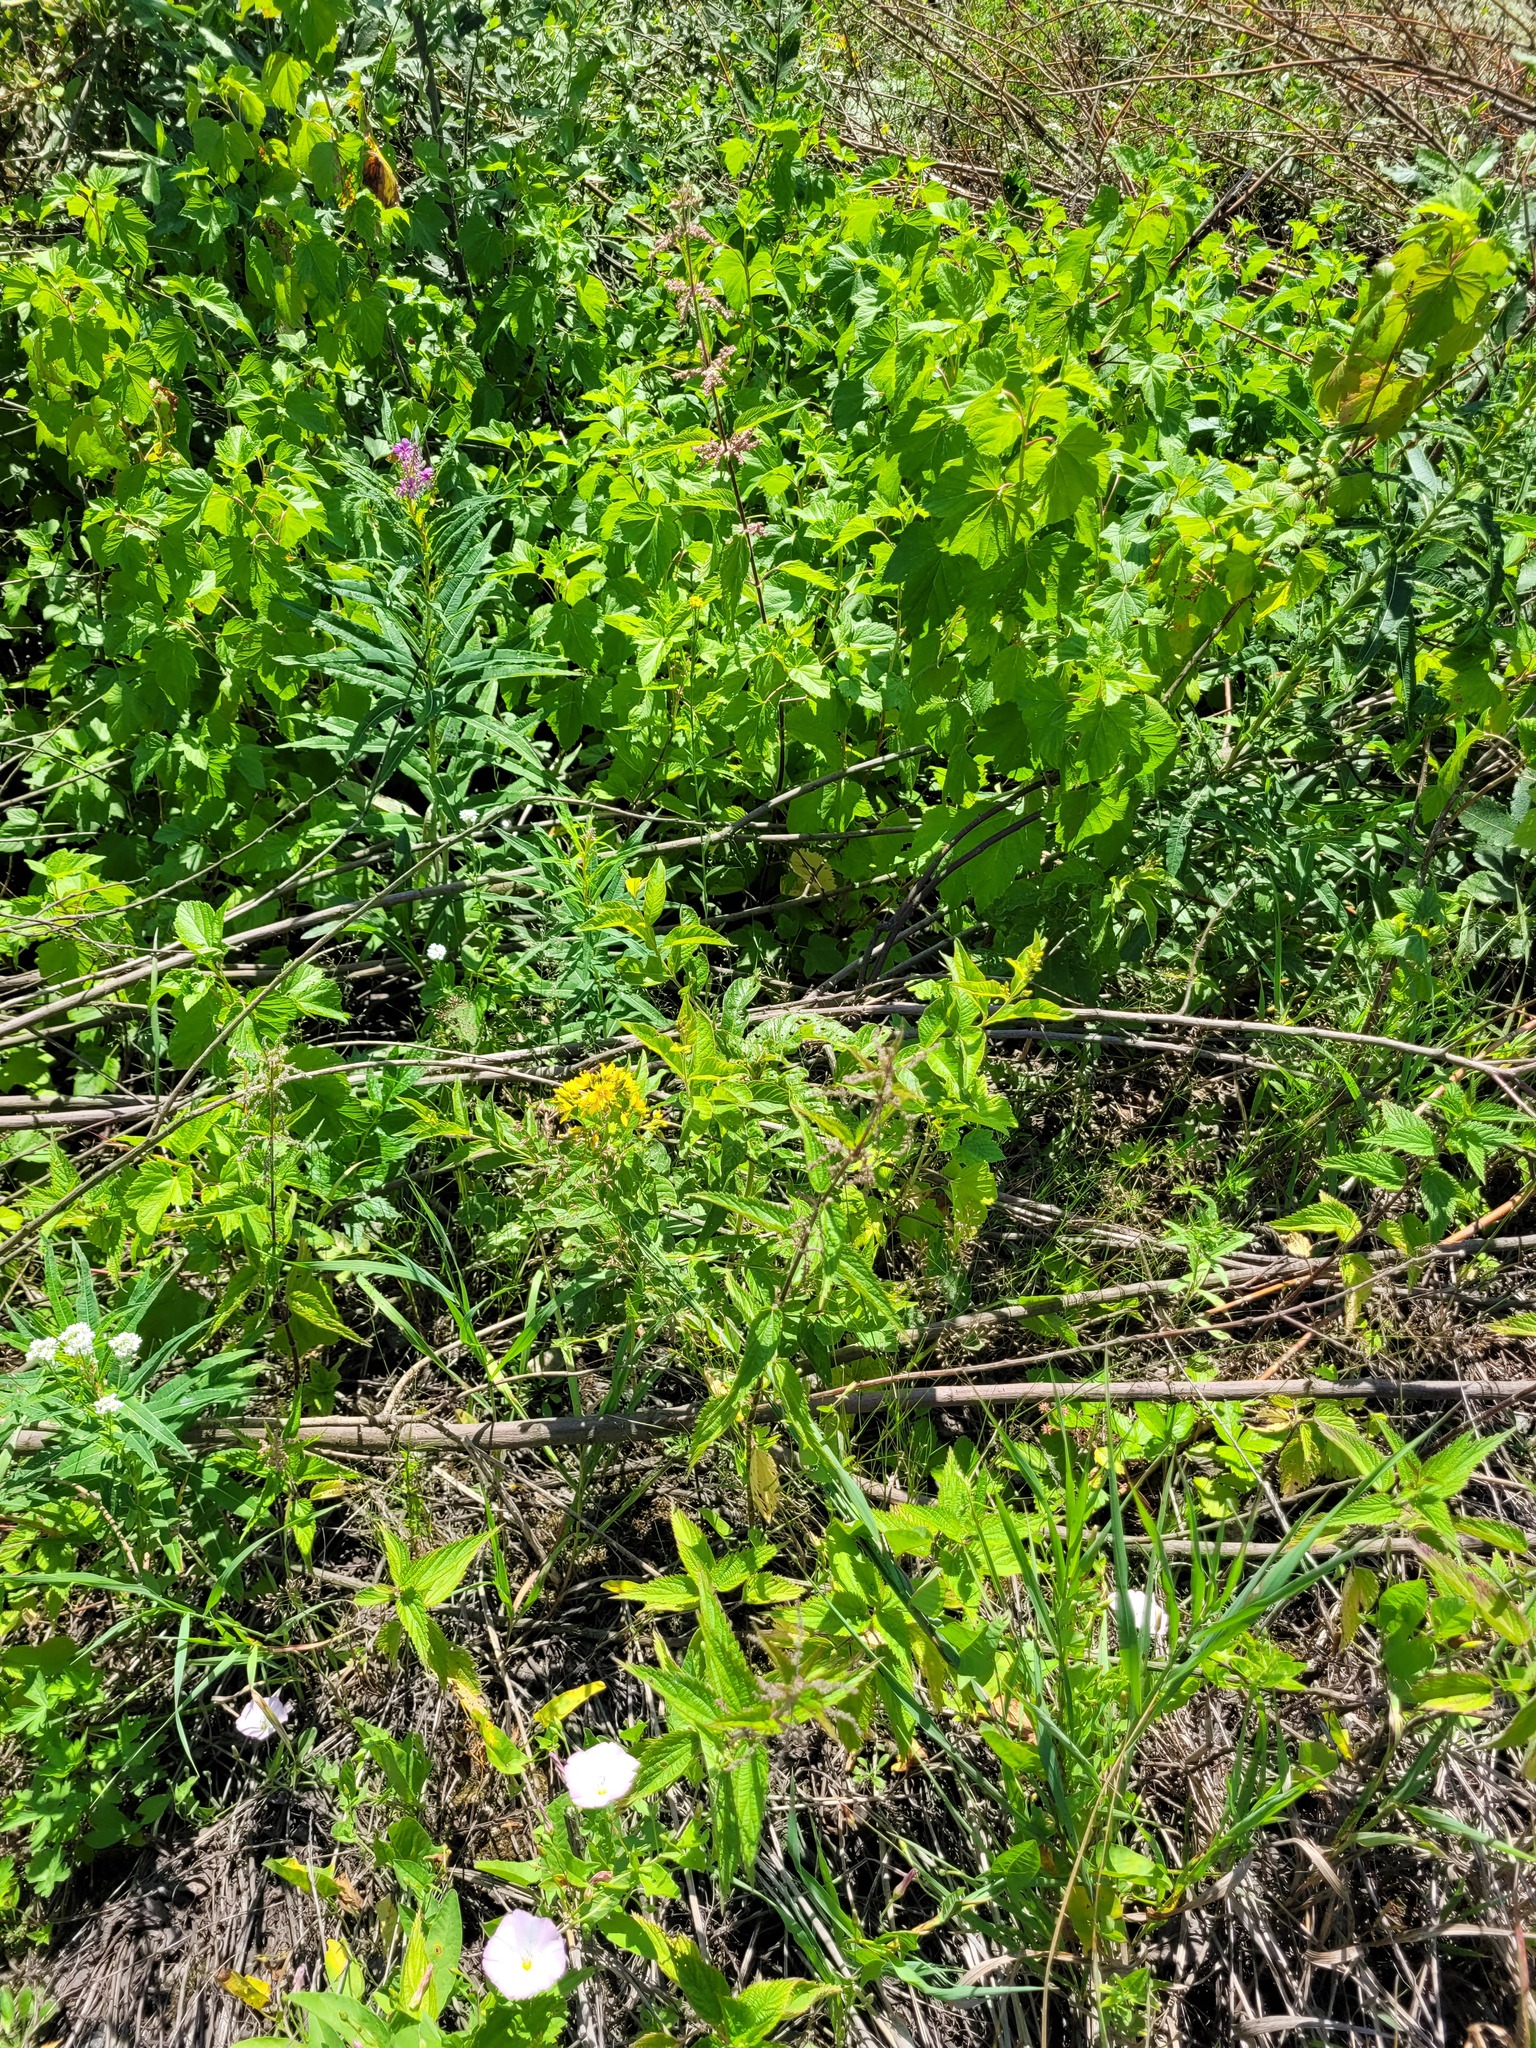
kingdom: Plantae
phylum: Tracheophyta
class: Magnoliopsida
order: Ericales
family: Primulaceae
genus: Lysimachia
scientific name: Lysimachia vulgaris
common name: Yellow loosestrife
